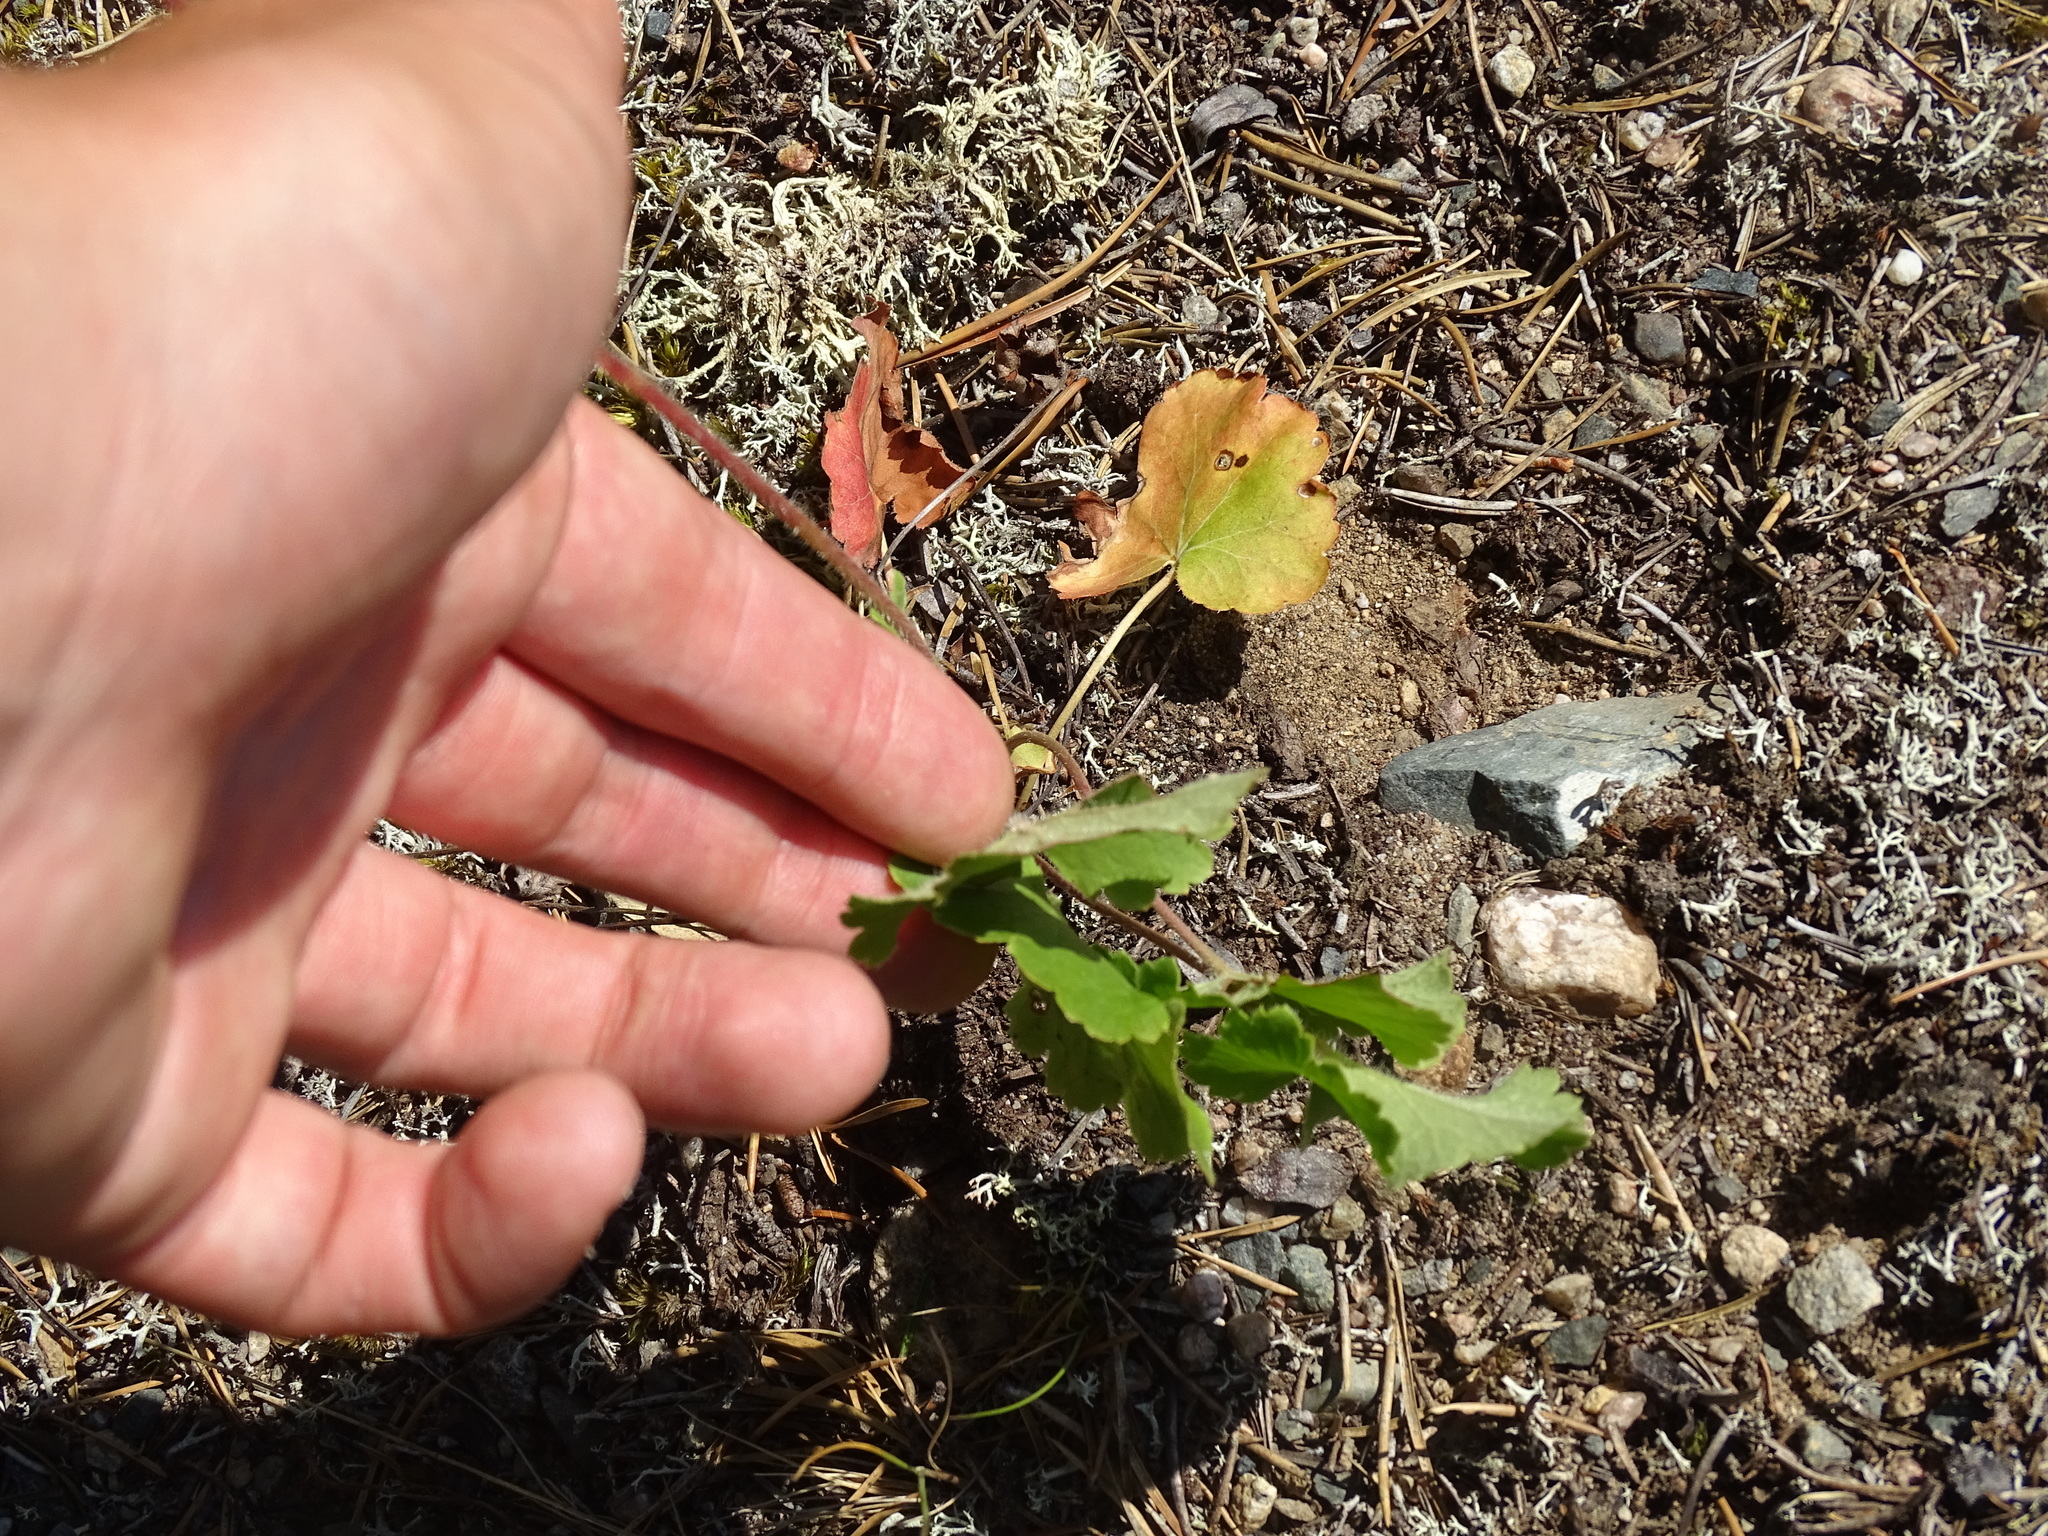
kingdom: Plantae
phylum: Tracheophyta
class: Magnoliopsida
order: Saxifragales
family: Saxifragaceae
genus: Heuchera
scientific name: Heuchera richardsonii
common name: Richardson's alumroot
